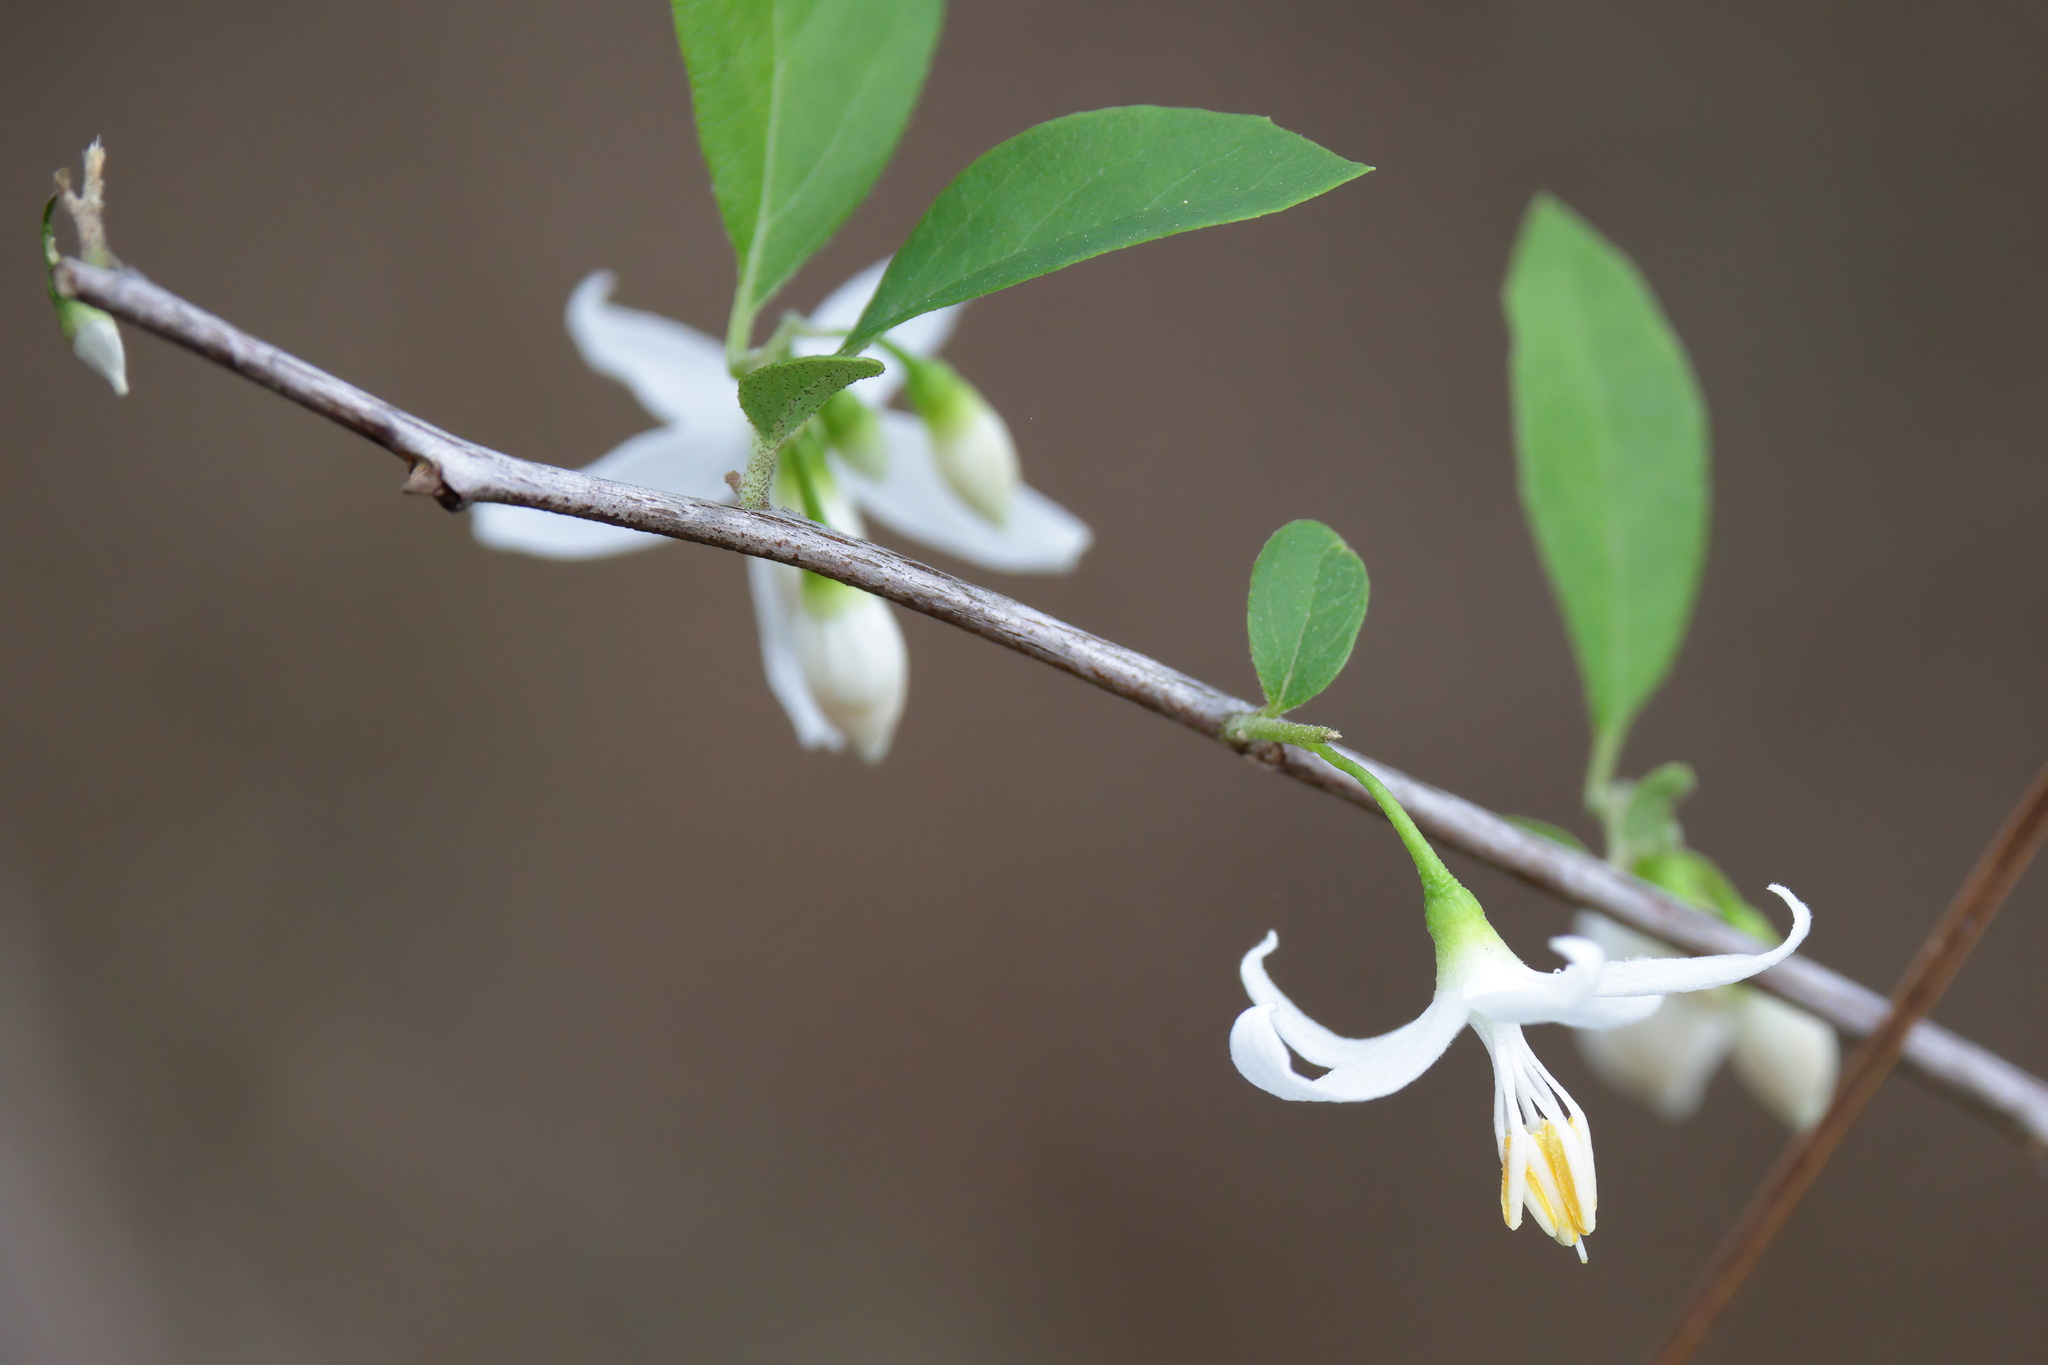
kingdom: Plantae
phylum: Tracheophyta
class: Magnoliopsida
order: Ericales
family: Styracaceae
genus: Styrax
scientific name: Styrax americanus
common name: American snowbell
